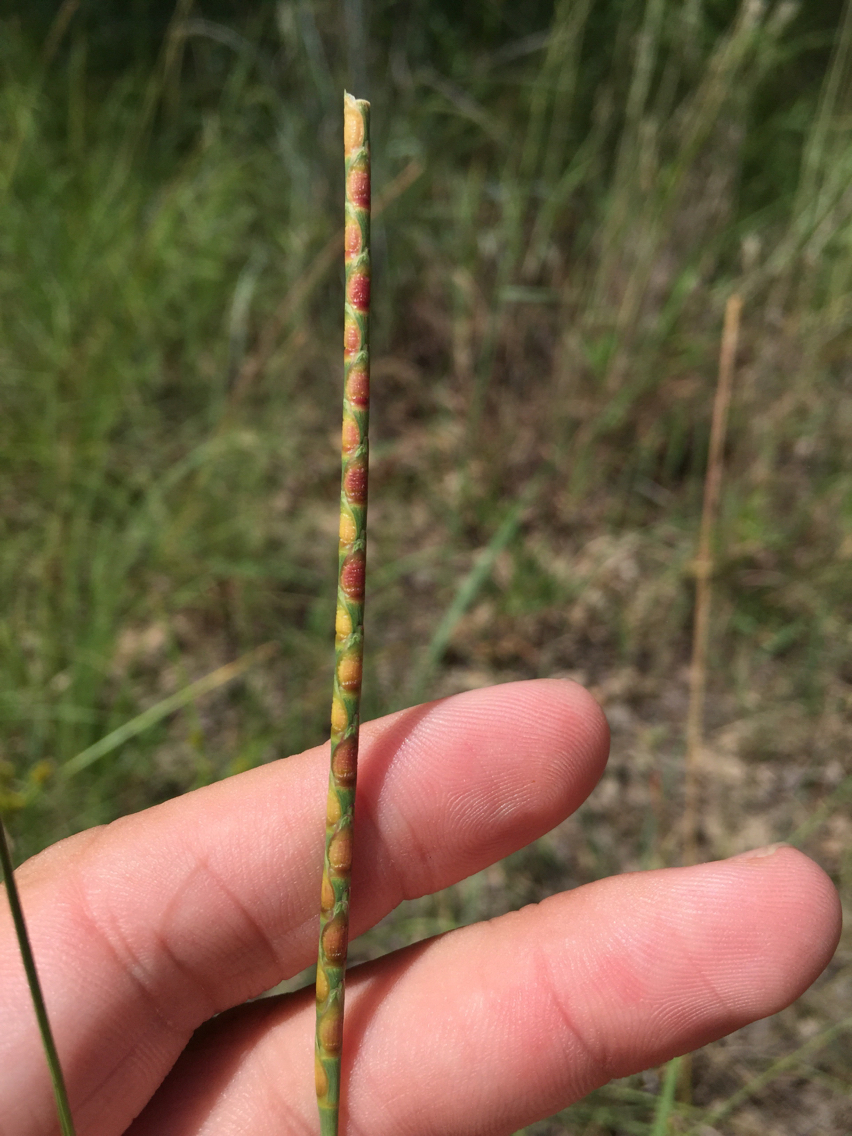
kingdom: Plantae
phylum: Tracheophyta
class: Liliopsida
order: Poales
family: Poaceae
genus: Rottboellia
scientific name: Rottboellia campestris
